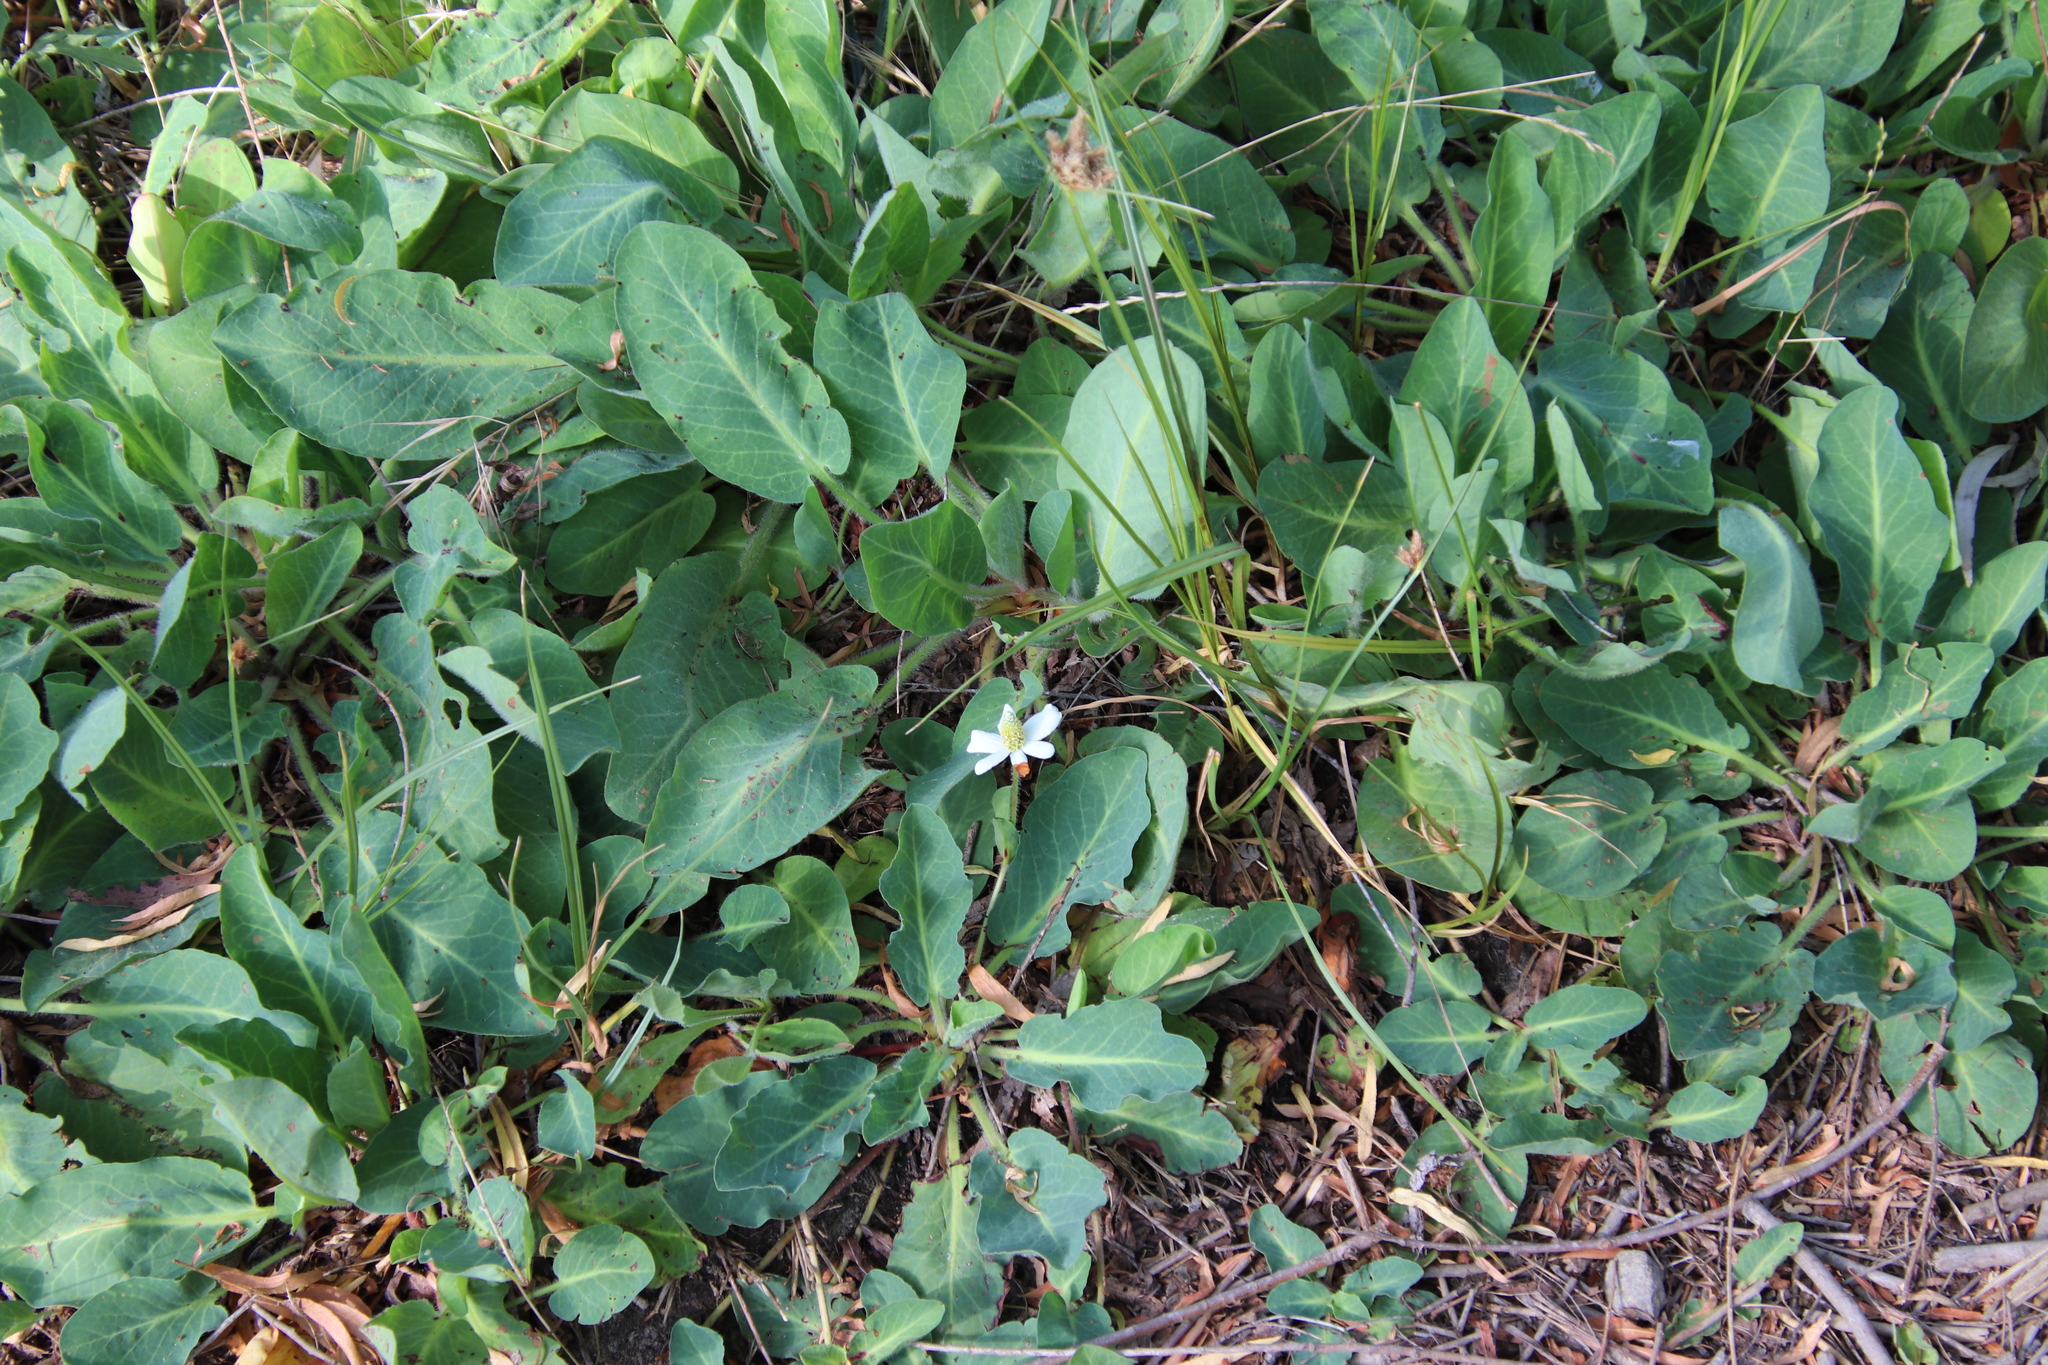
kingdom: Plantae
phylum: Tracheophyta
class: Magnoliopsida
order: Piperales
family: Saururaceae
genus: Anemopsis
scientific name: Anemopsis californica
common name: Apache-beads
